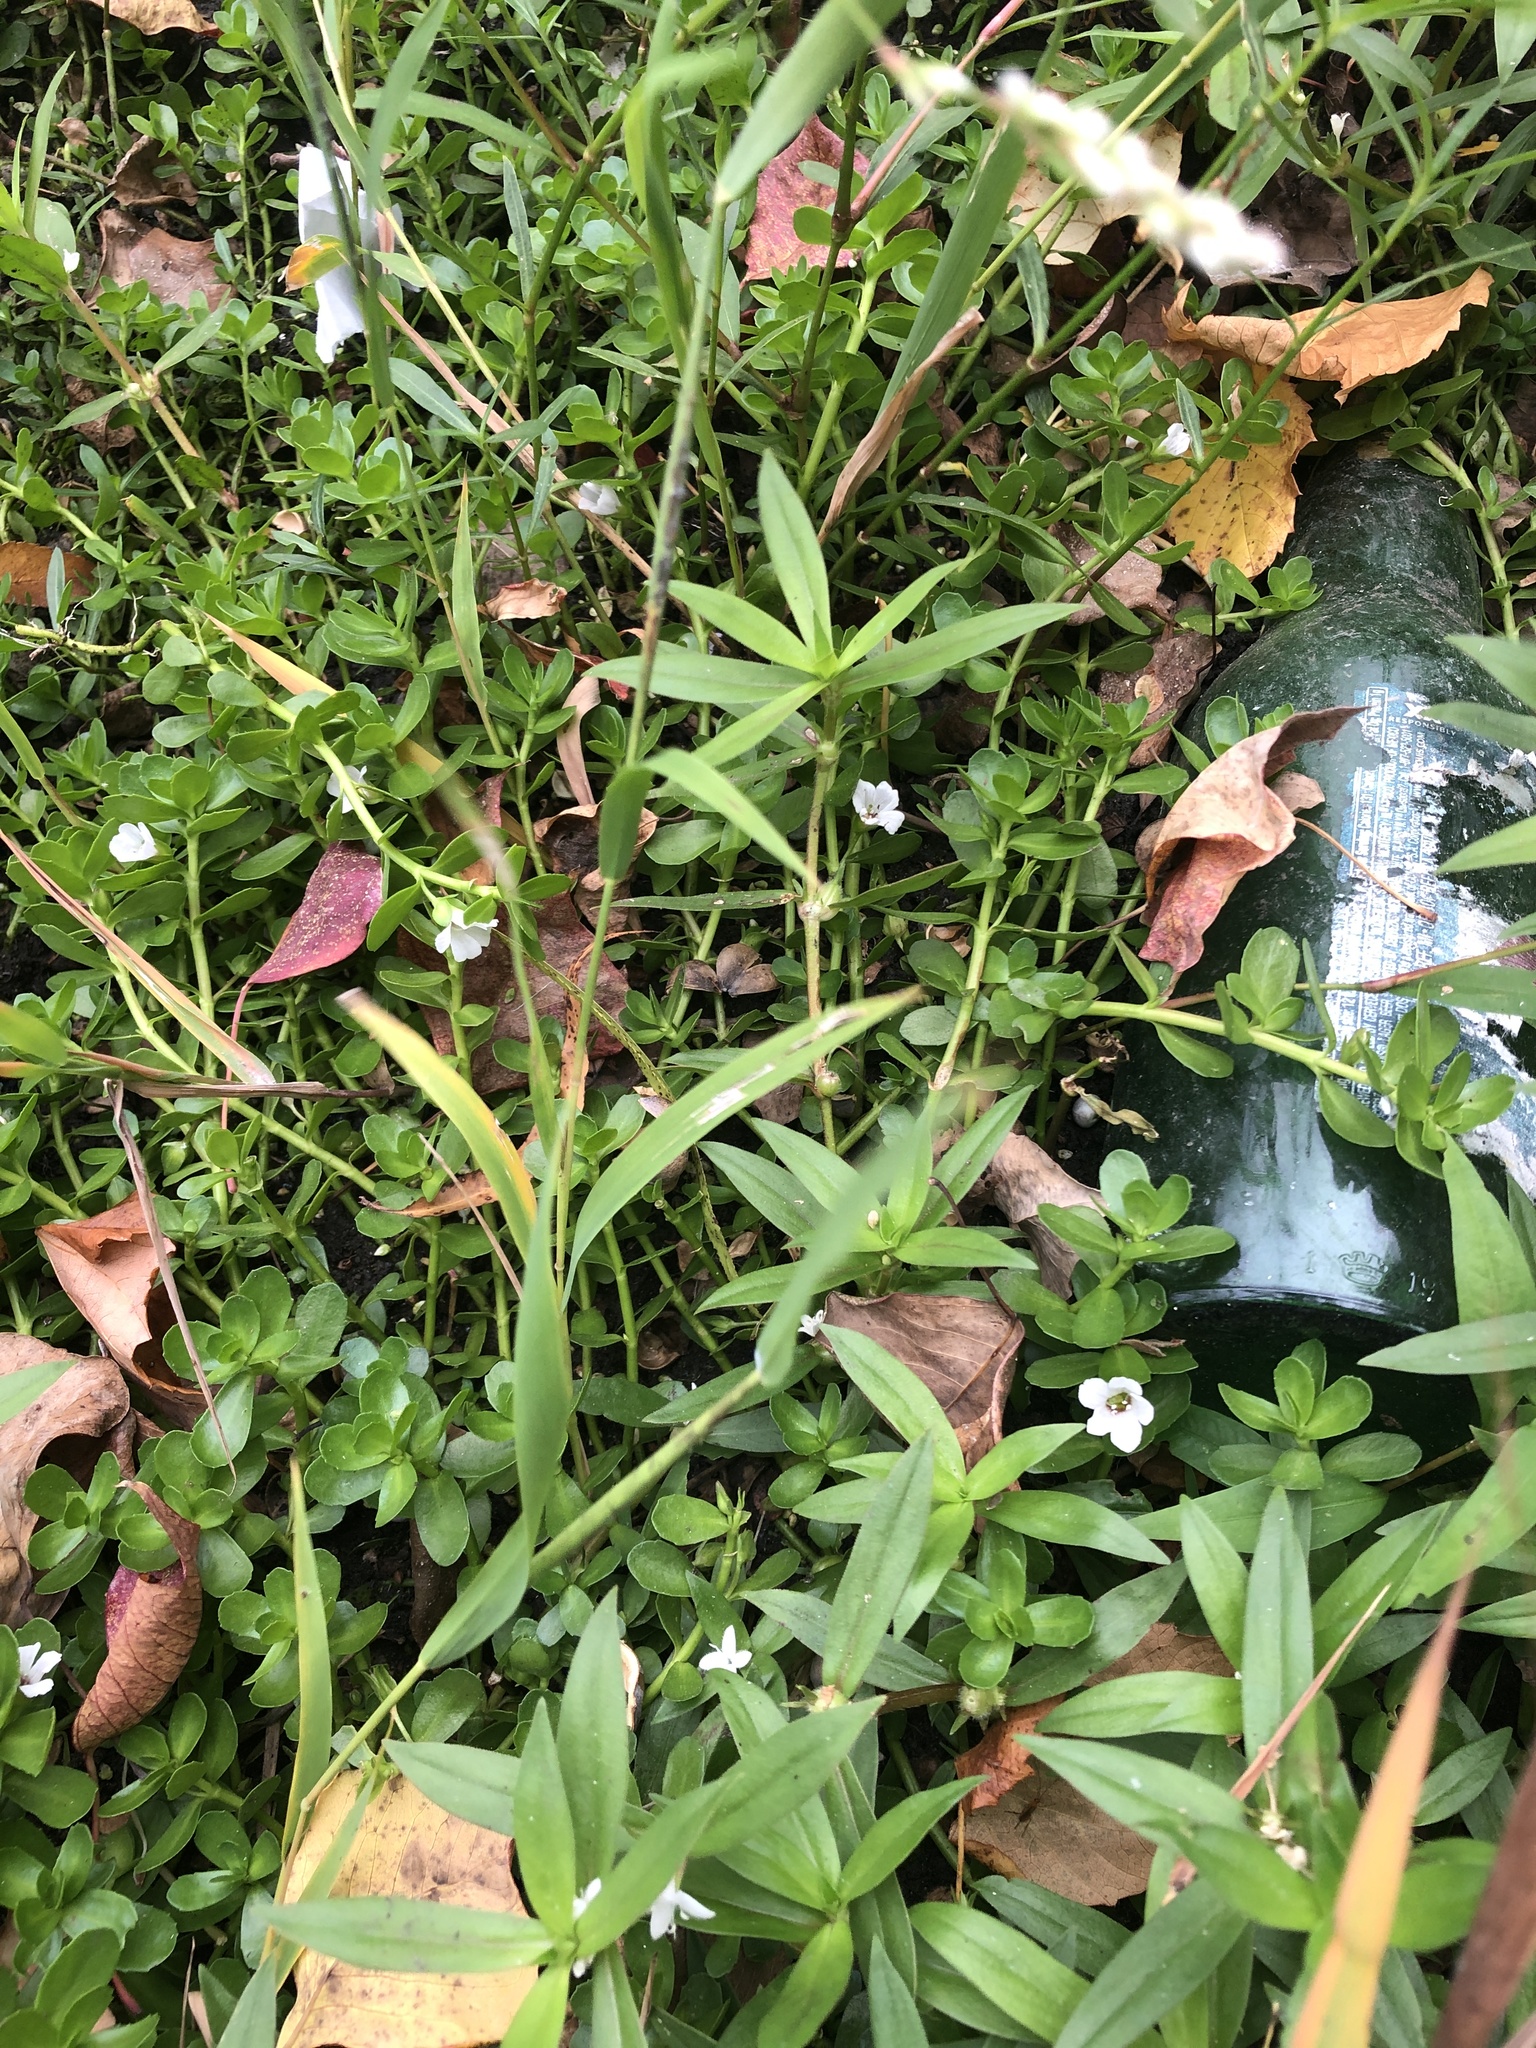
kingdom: Plantae
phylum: Tracheophyta
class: Magnoliopsida
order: Lamiales
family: Plantaginaceae
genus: Bacopa
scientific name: Bacopa monnieri
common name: Indian-pennywort
